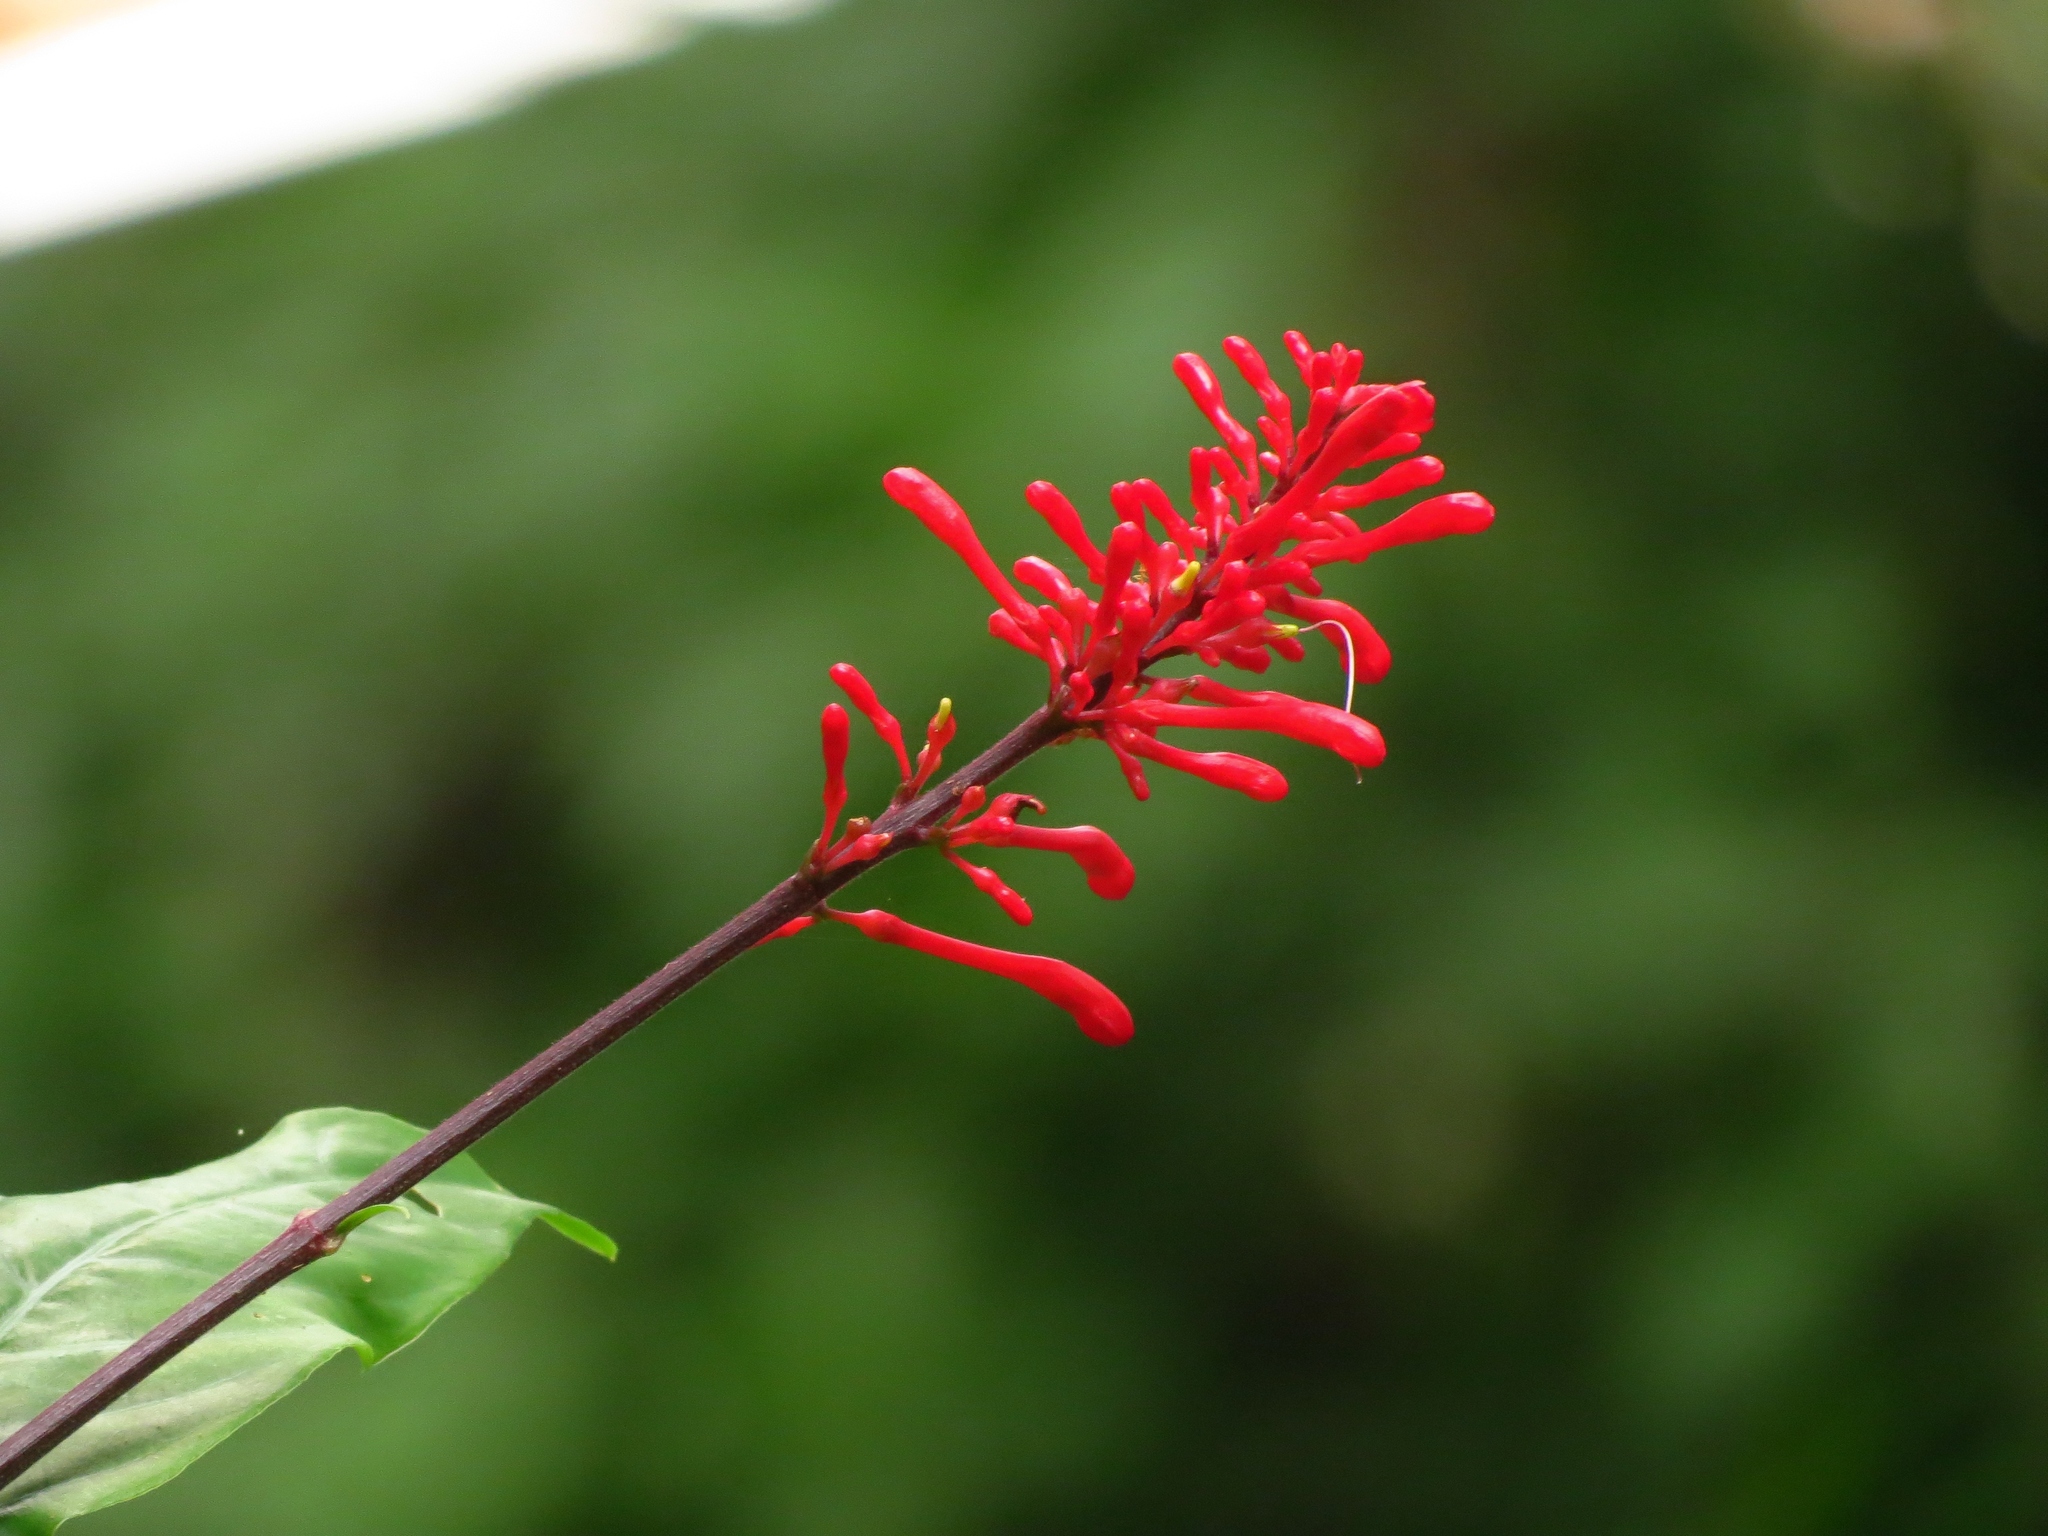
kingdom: Plantae
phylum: Tracheophyta
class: Magnoliopsida
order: Lamiales
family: Acanthaceae
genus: Odontonema
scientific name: Odontonema cuspidatum
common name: Mottled toothedthread
